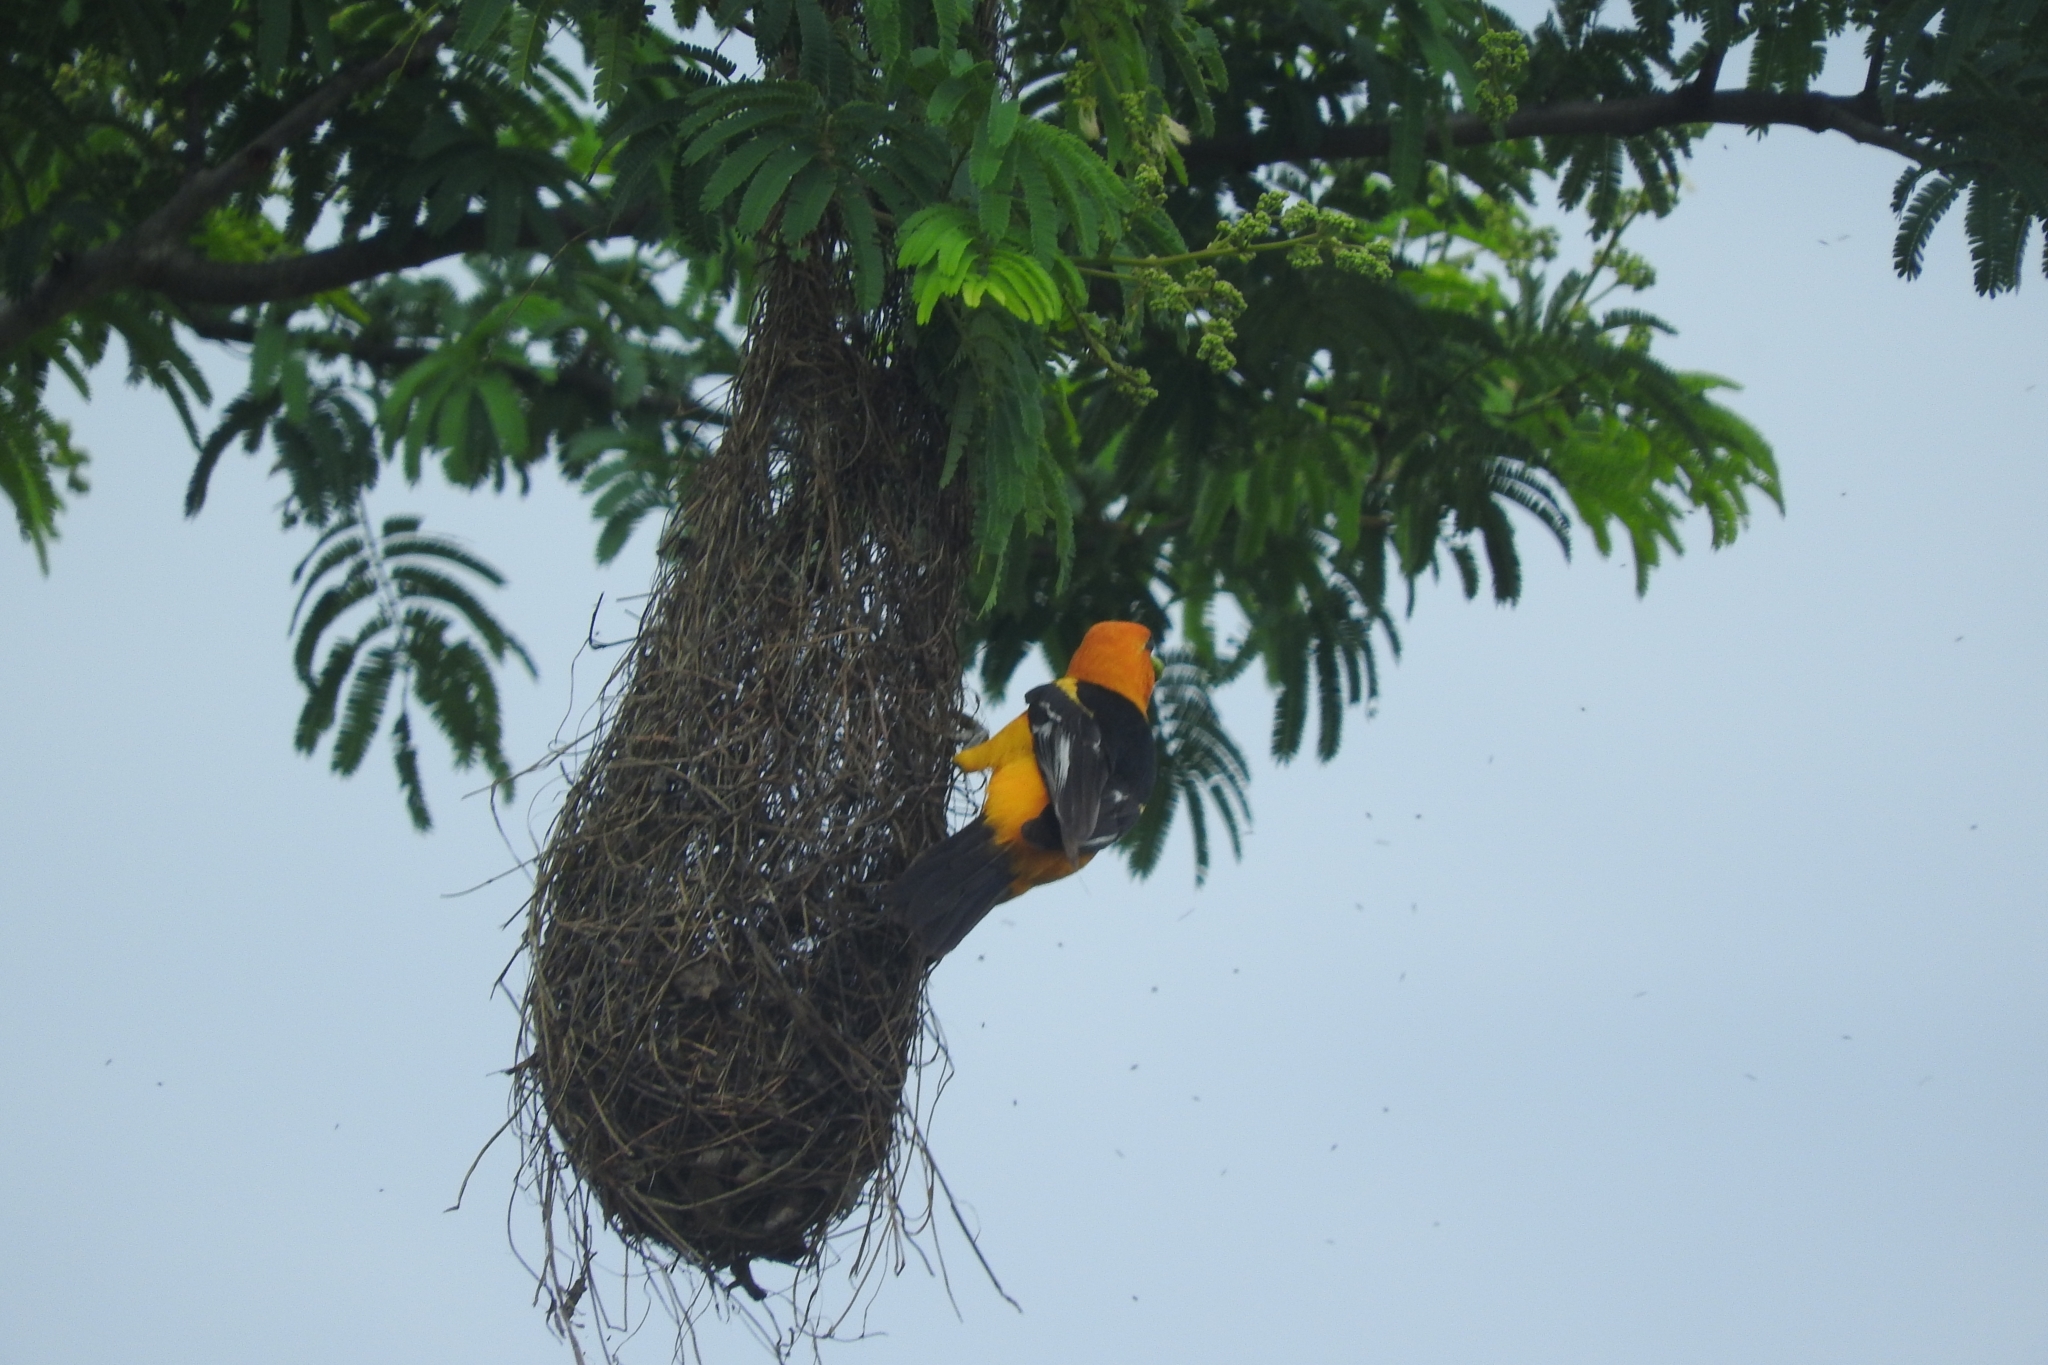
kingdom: Animalia
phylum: Chordata
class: Aves
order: Passeriformes
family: Icteridae
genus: Icterus
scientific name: Icterus gularis
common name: Altamira oriole
